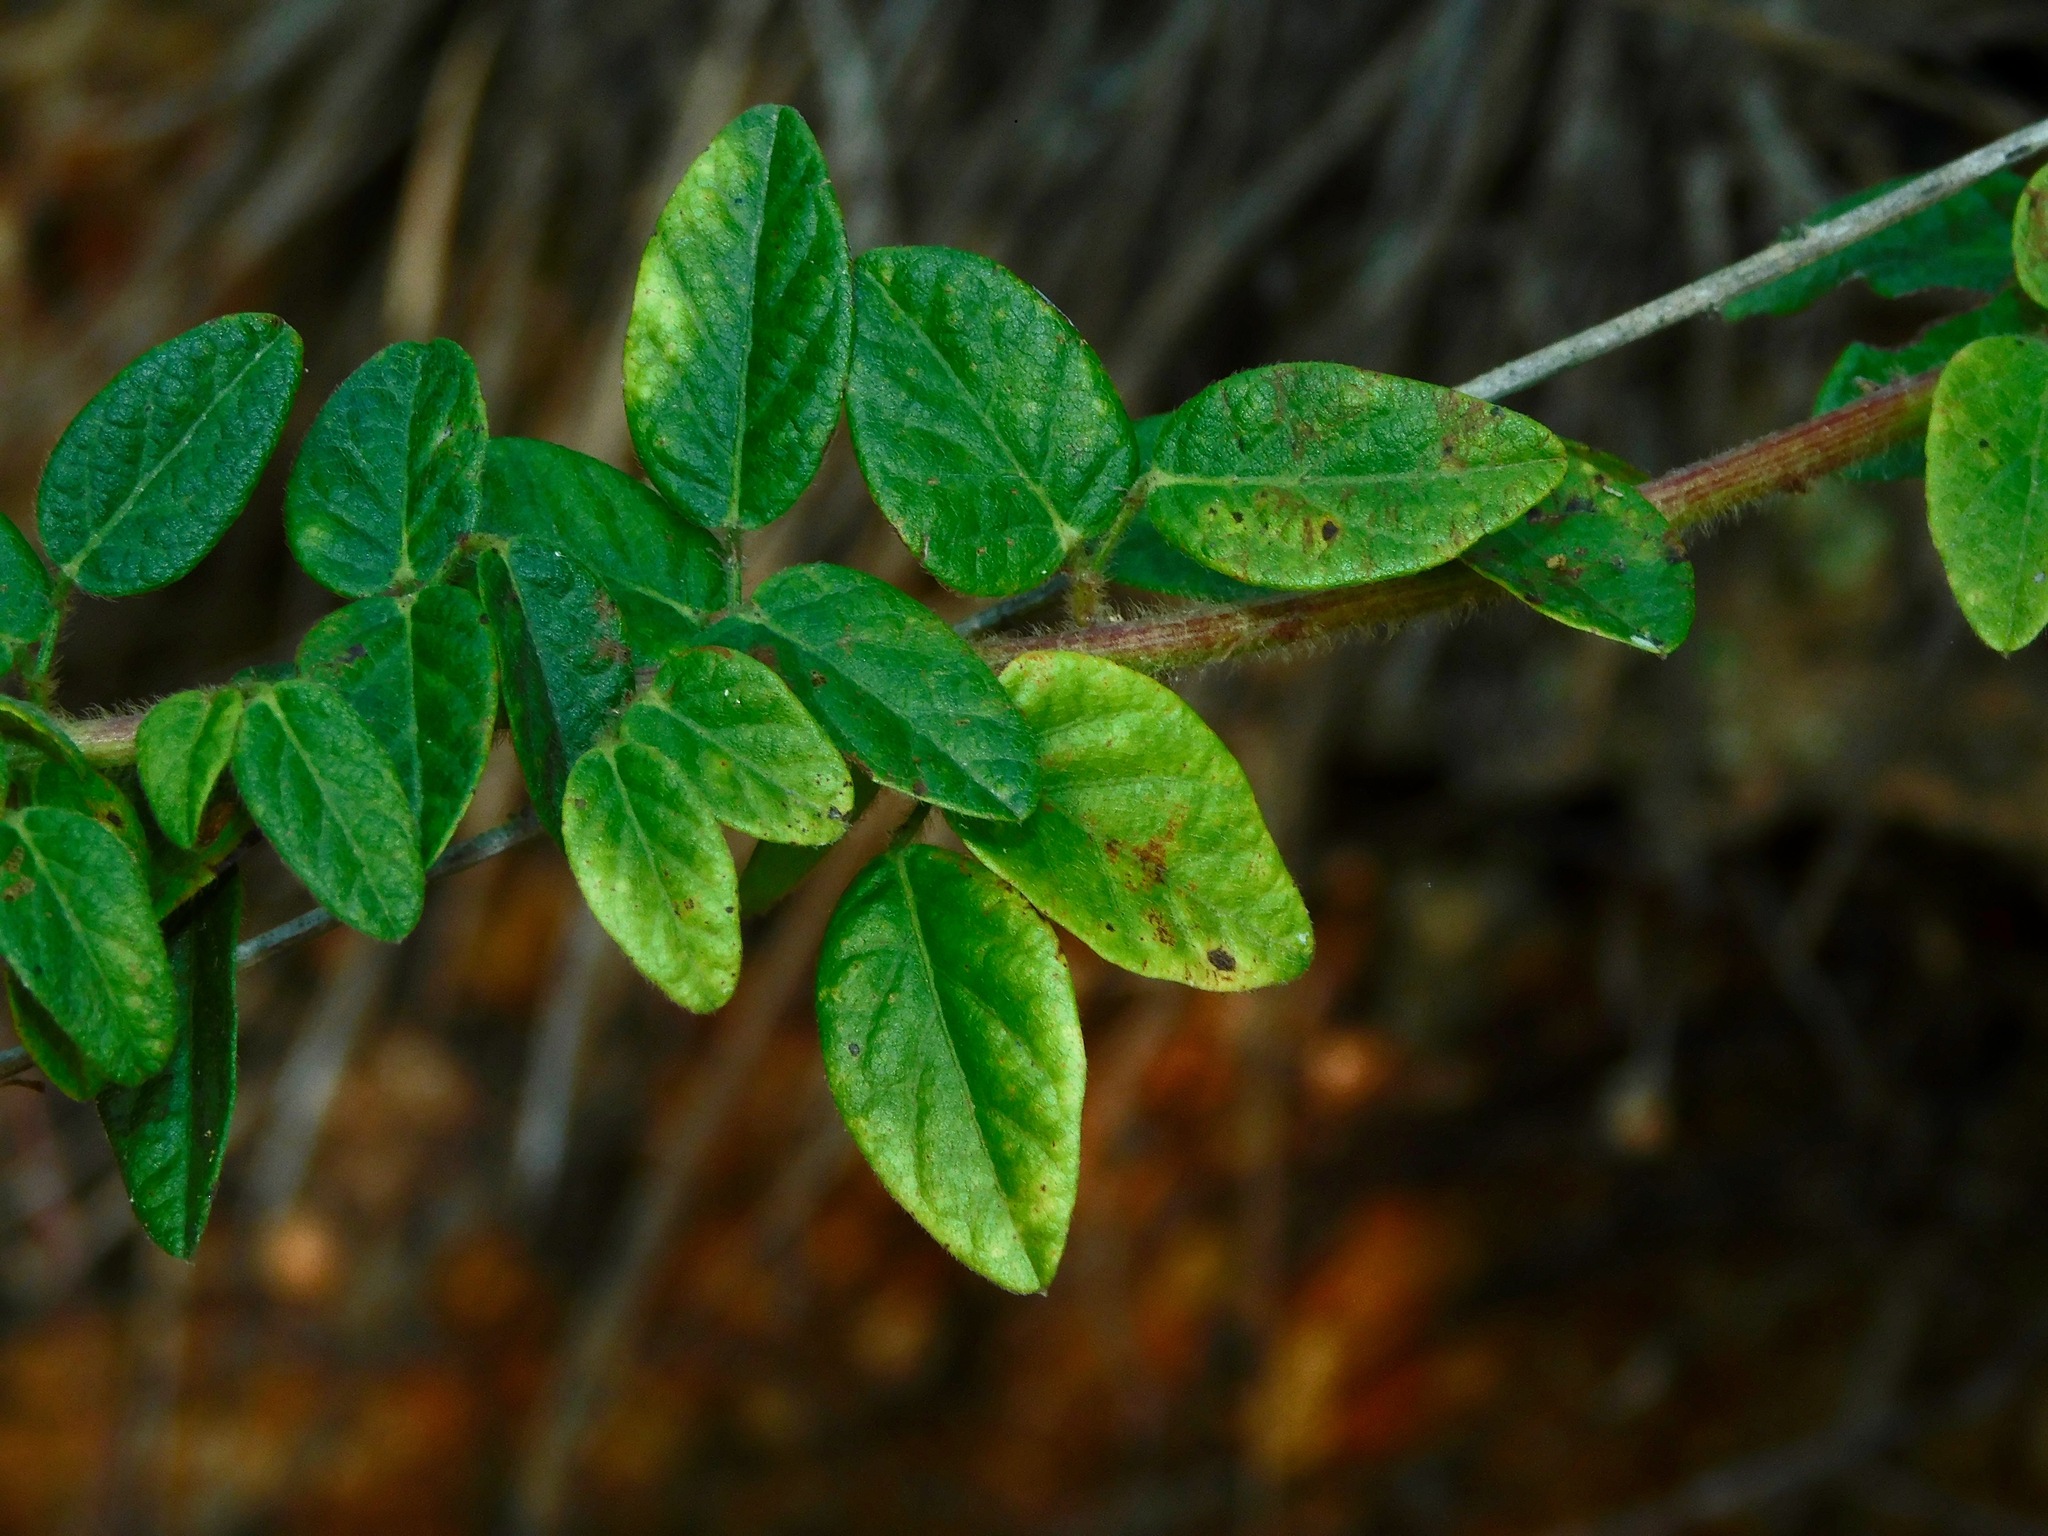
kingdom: Plantae
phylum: Tracheophyta
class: Magnoliopsida
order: Fabales
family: Fabaceae
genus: Desmodium
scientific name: Desmodium ciliare
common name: Hairy small-leaf ticktrefoil
